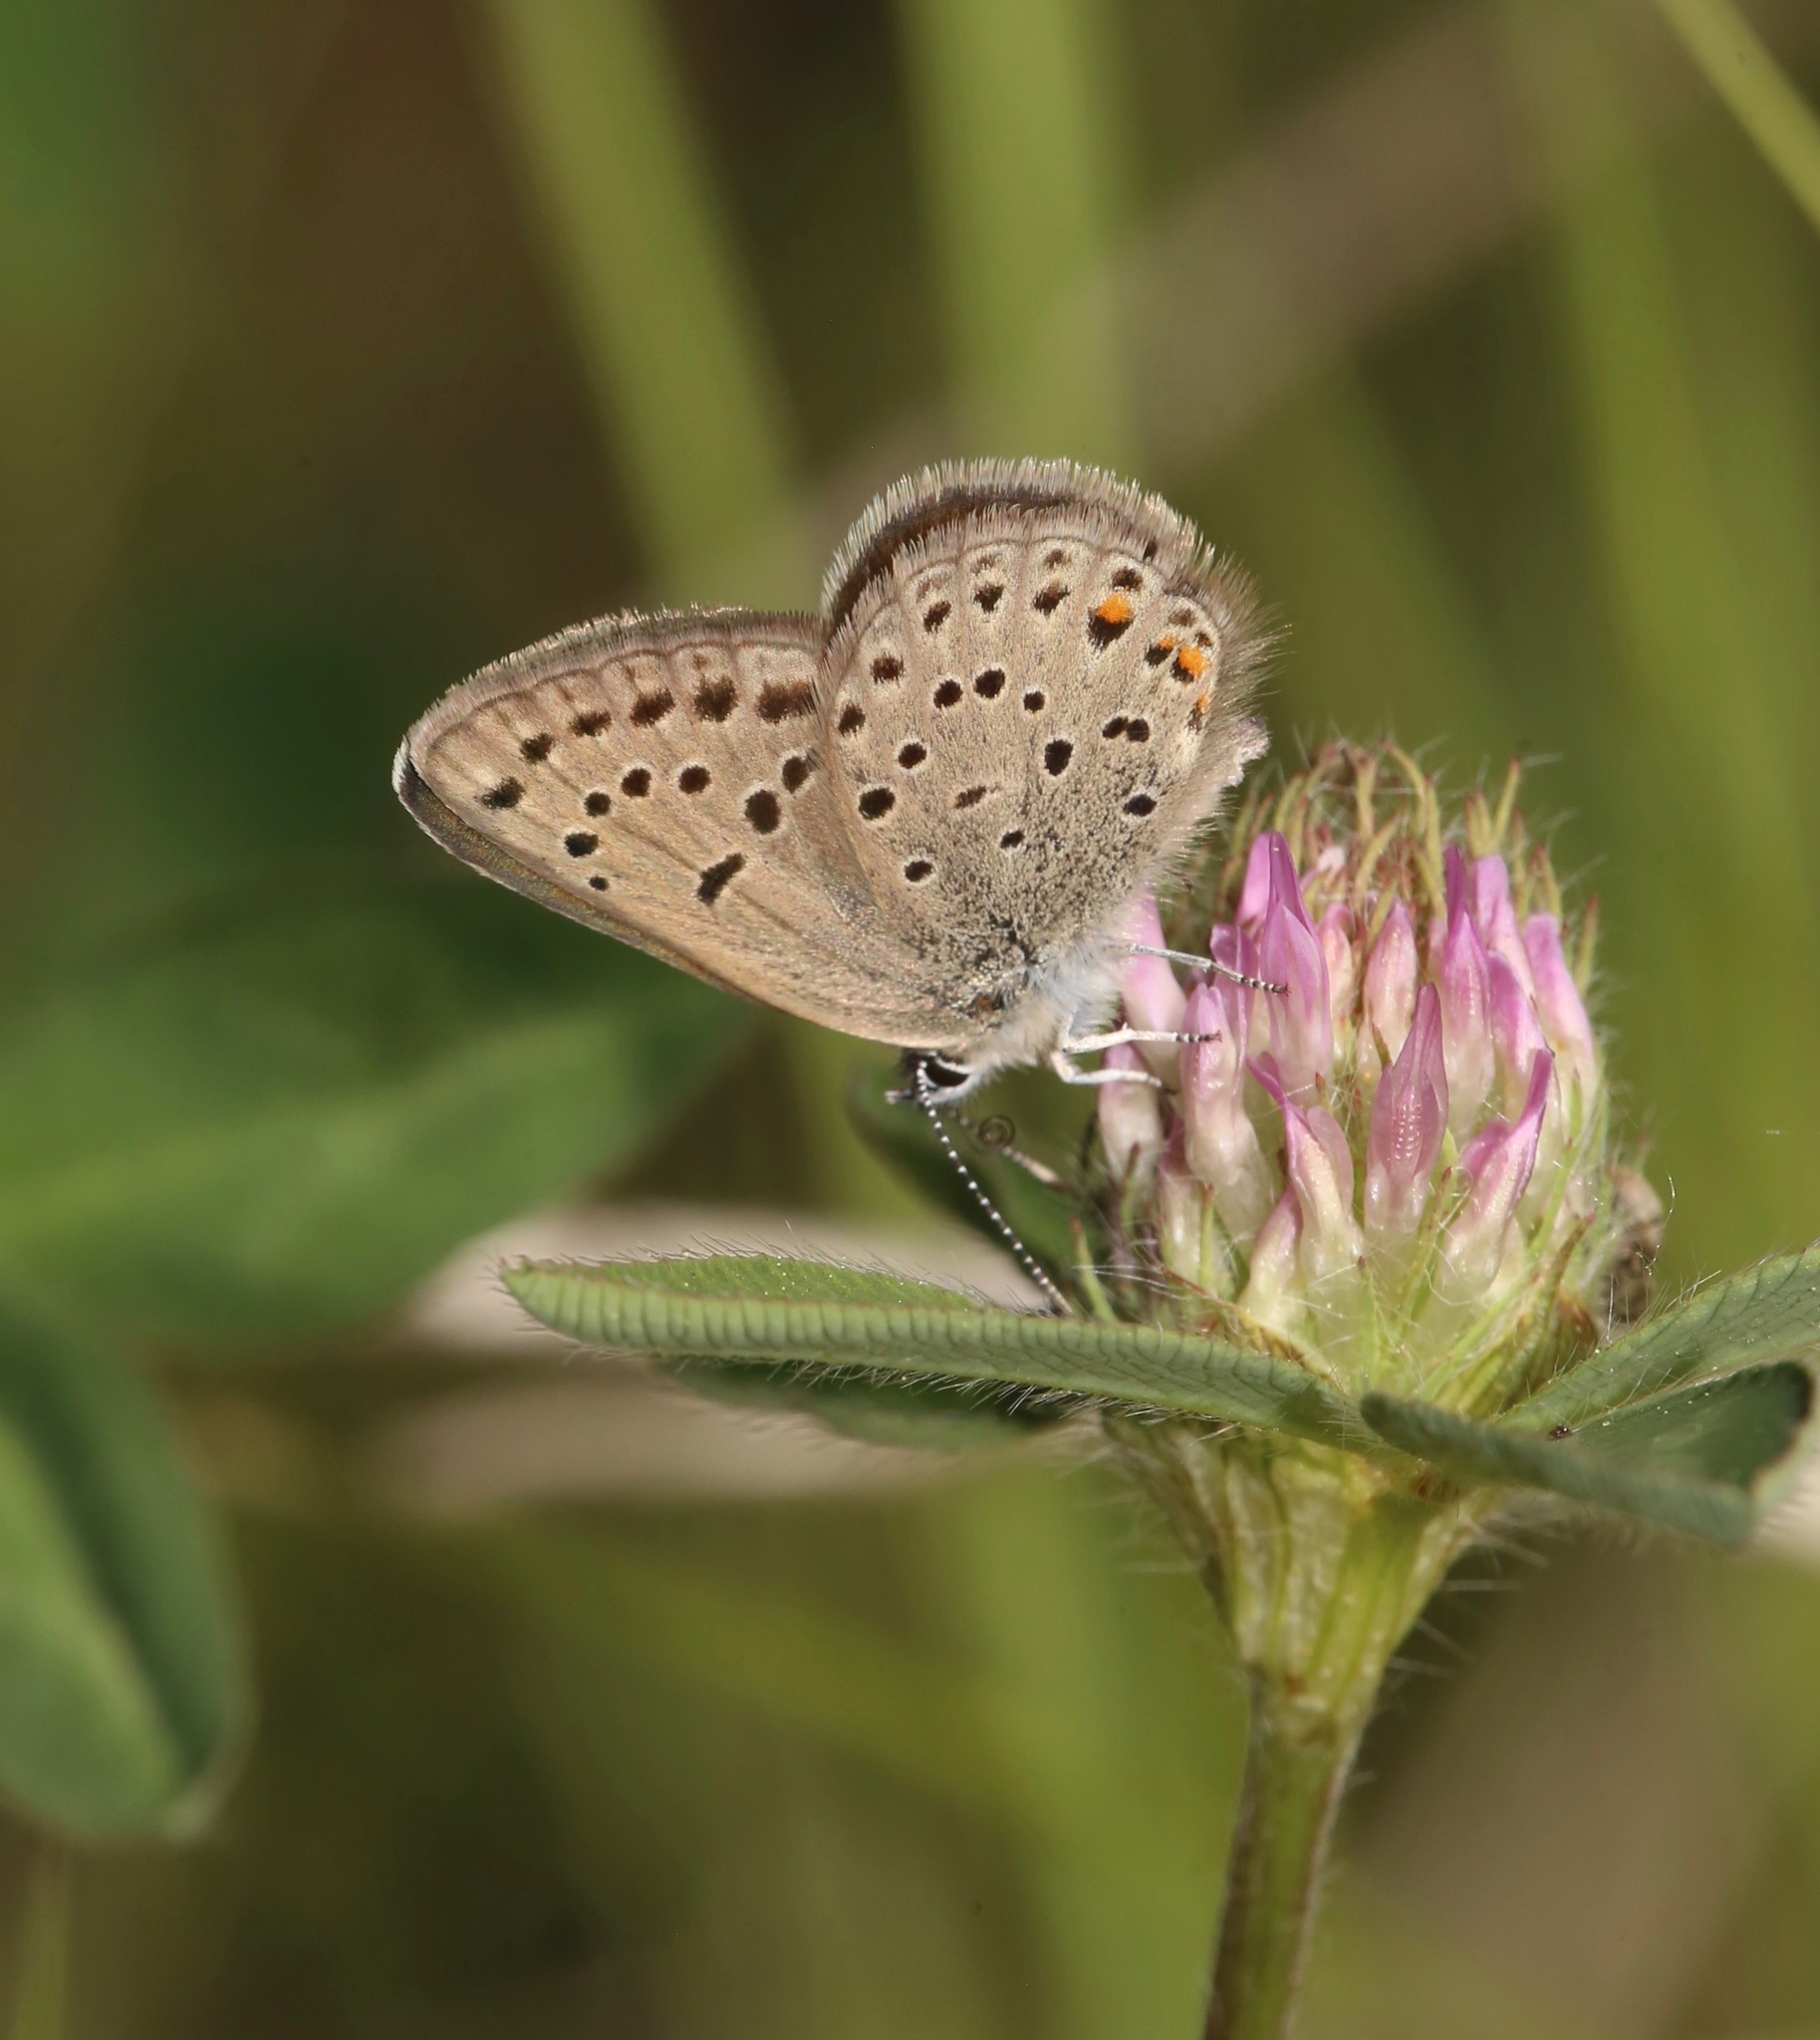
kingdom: Animalia
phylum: Arthropoda
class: Insecta
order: Lepidoptera
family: Lycaenidae
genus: Icaricia
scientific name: Icaricia saepiolus
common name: Greenish blue
